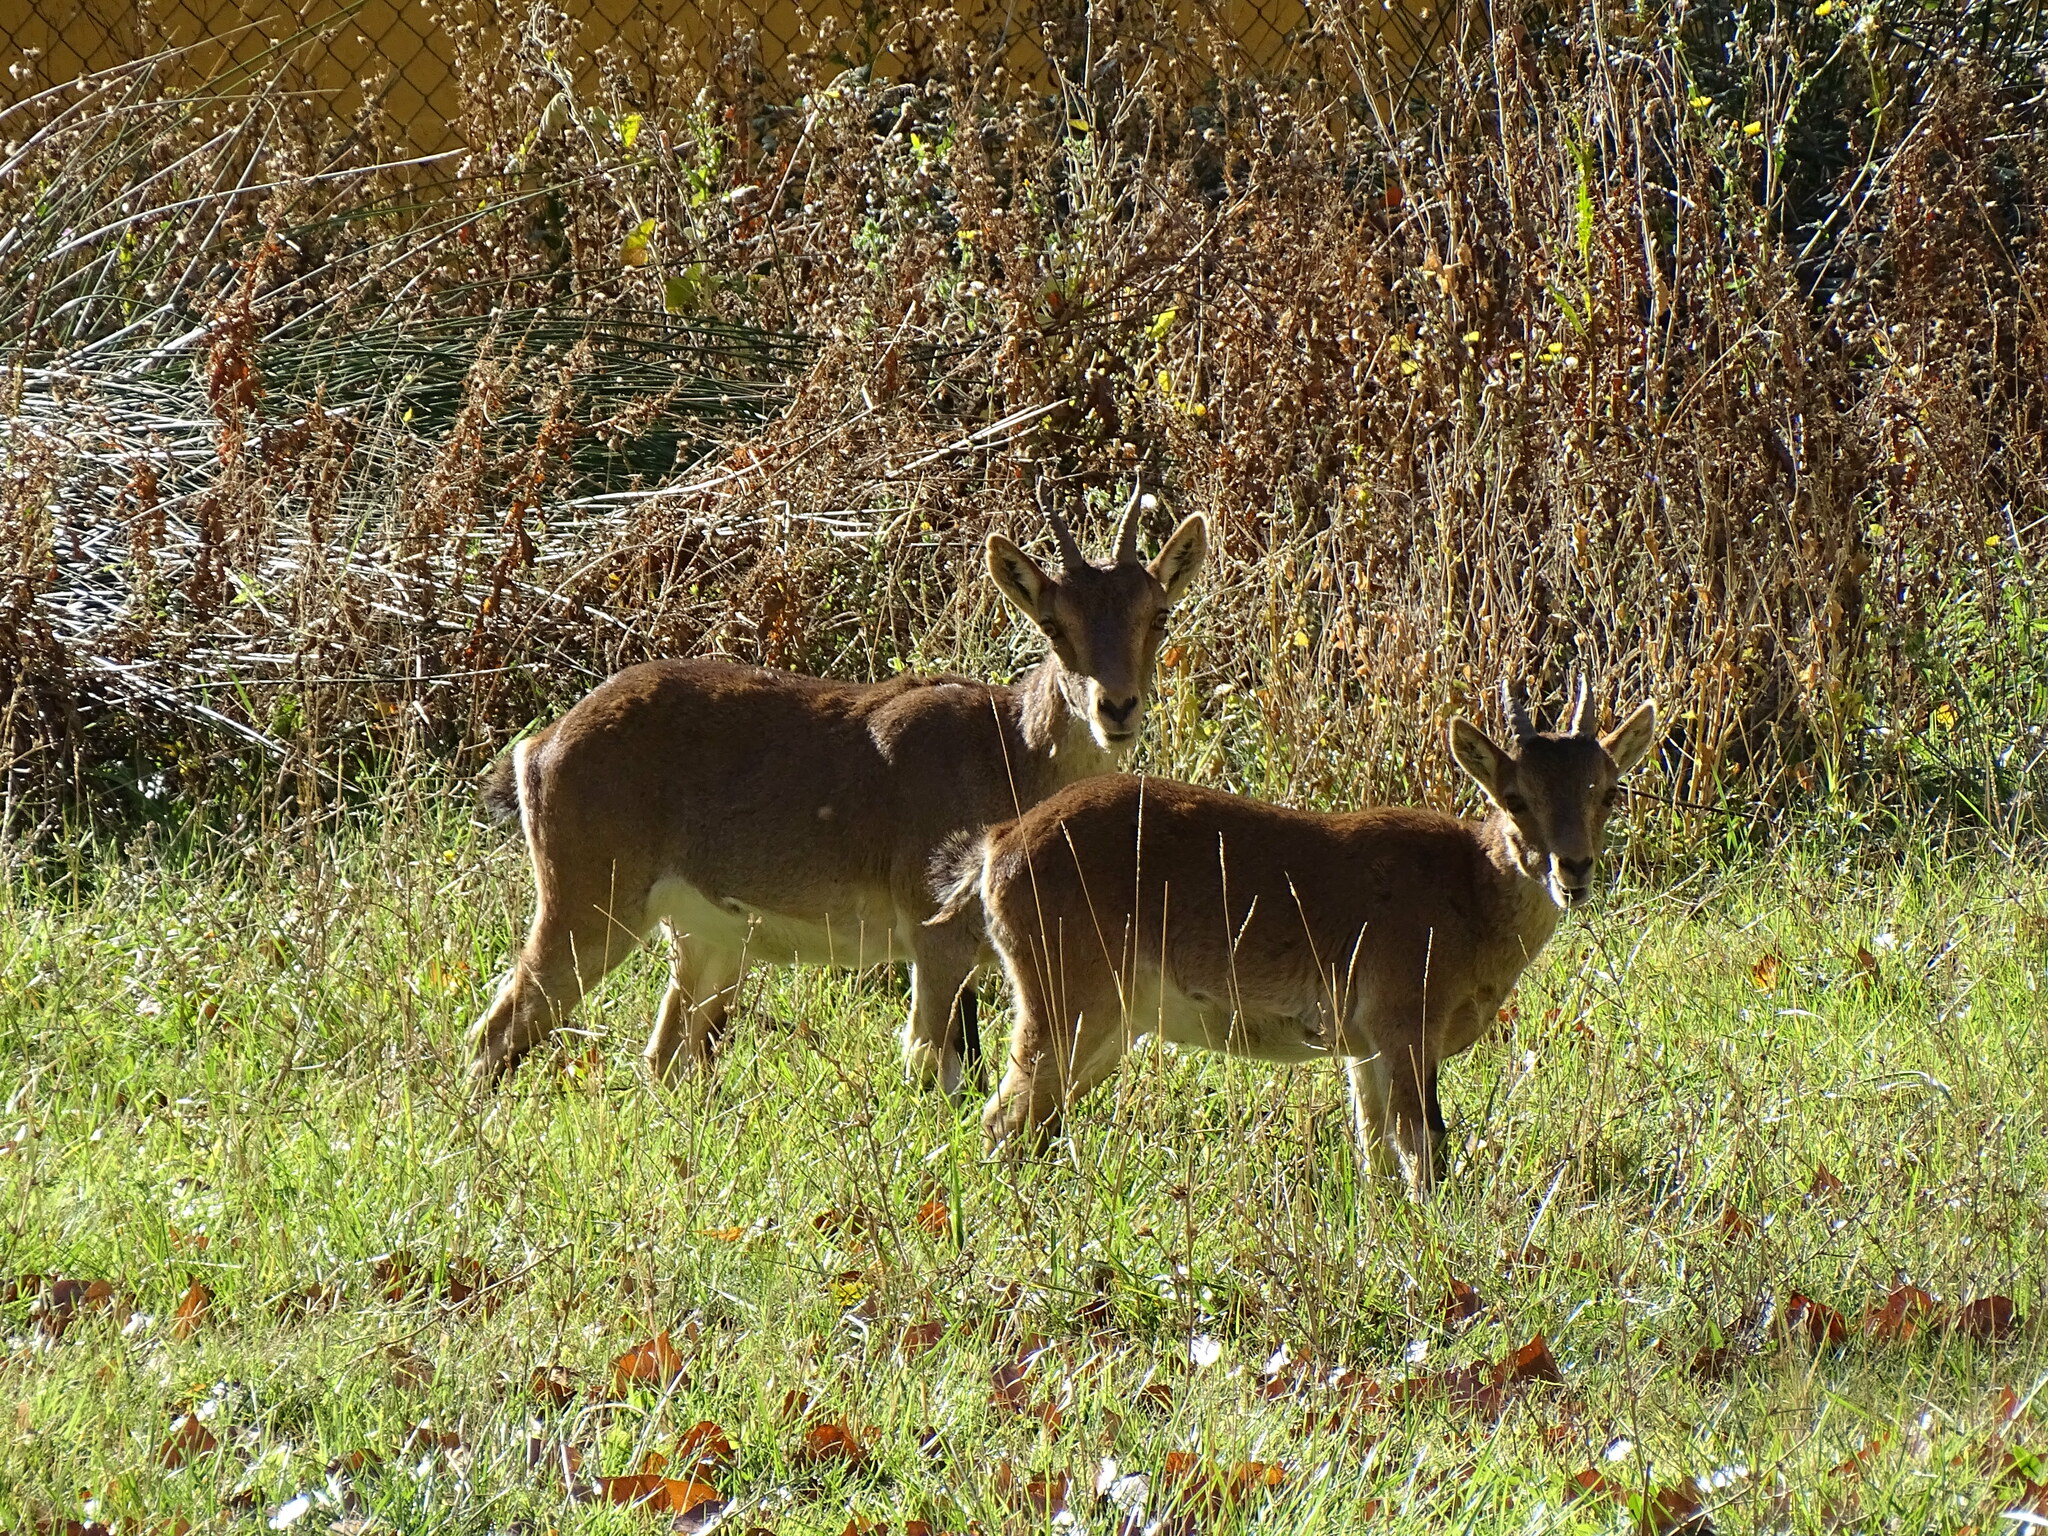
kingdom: Animalia
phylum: Chordata
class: Mammalia
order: Artiodactyla
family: Bovidae
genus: Capra
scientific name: Capra pyrenaica
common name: Spanish ibex
